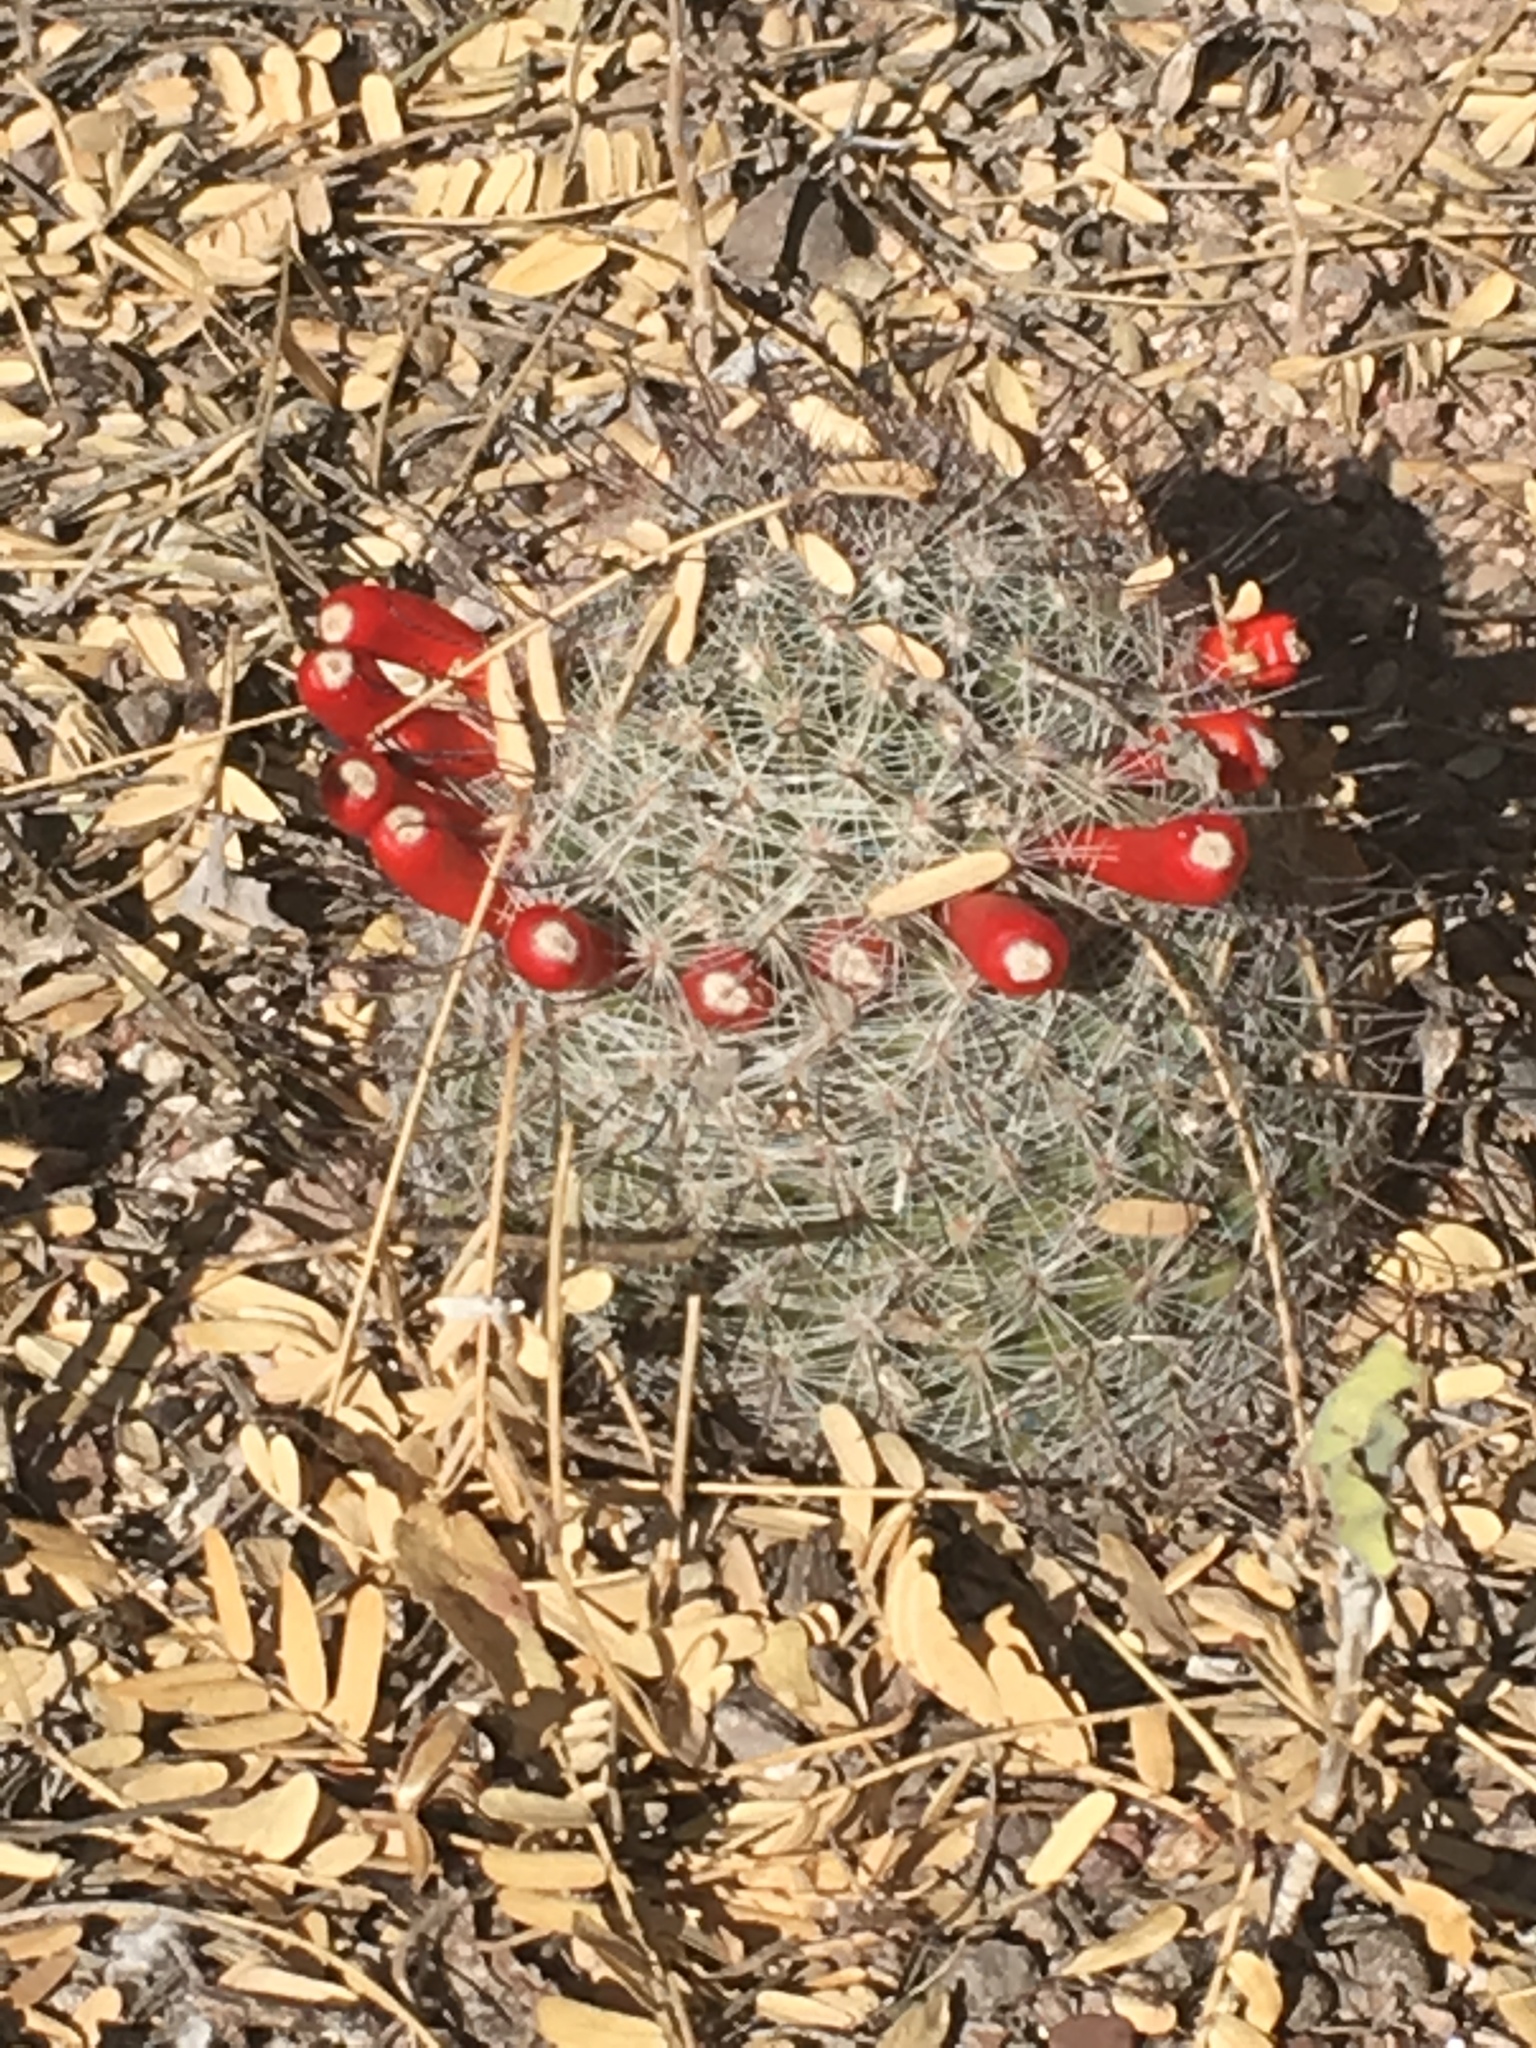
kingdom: Plantae
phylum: Tracheophyta
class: Magnoliopsida
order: Caryophyllales
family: Cactaceae
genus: Cochemiea
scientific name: Cochemiea grahamii
